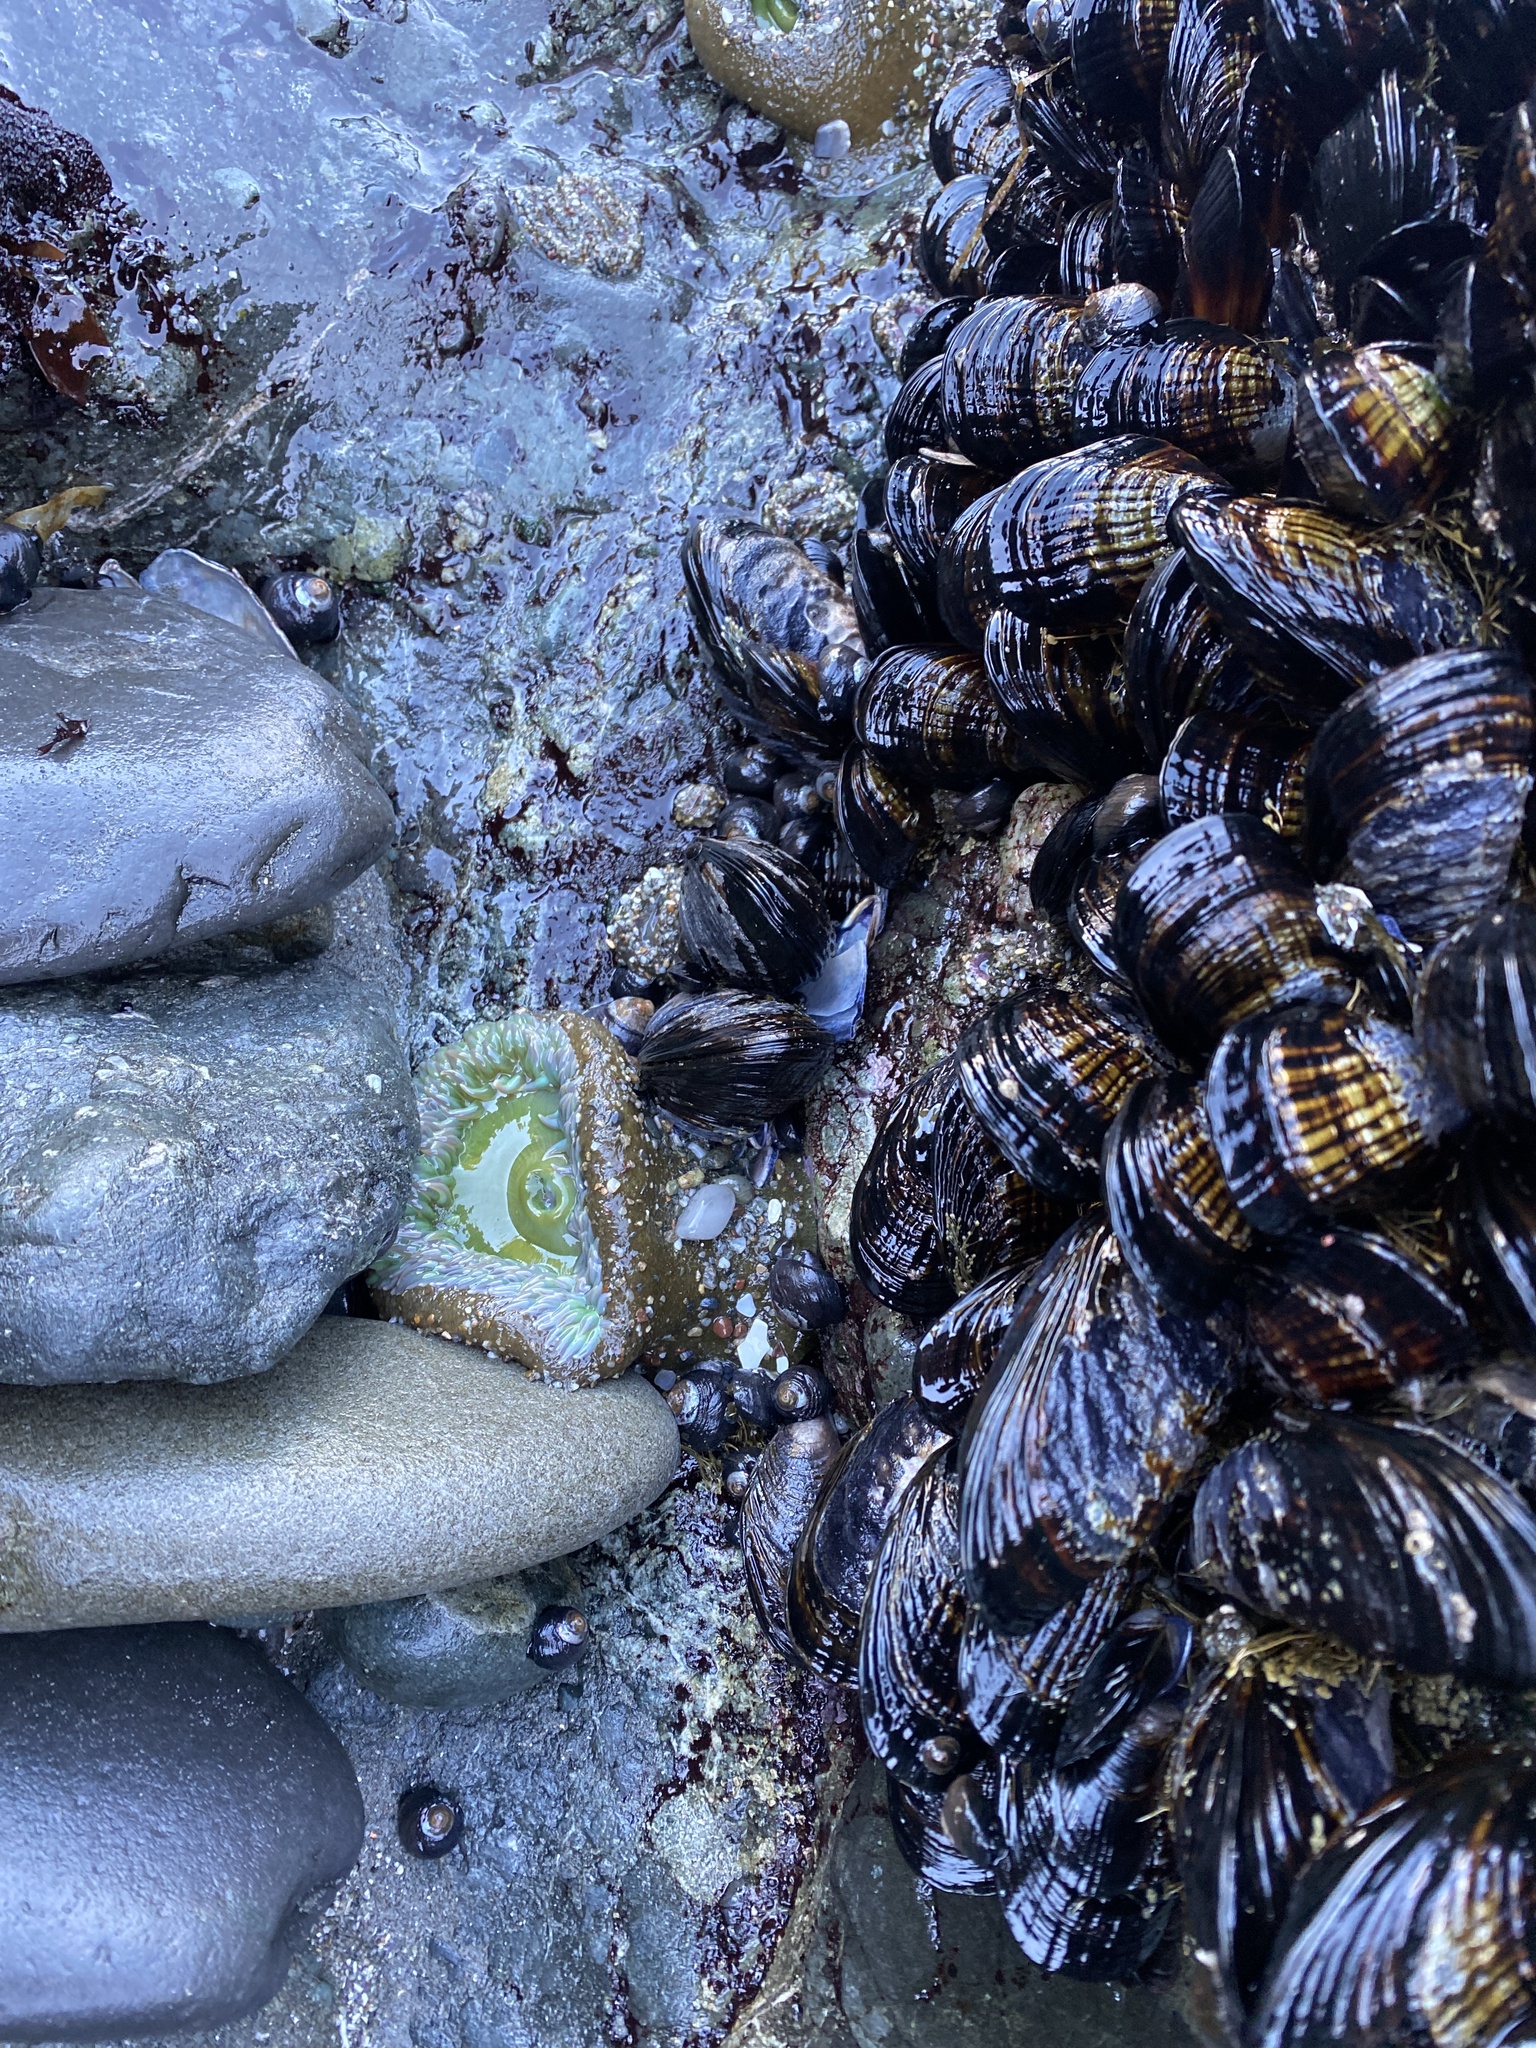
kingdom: Animalia
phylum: Cnidaria
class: Anthozoa
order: Actiniaria
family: Actiniidae
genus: Anthopleura
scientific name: Anthopleura xanthogrammica
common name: Giant green anemone
